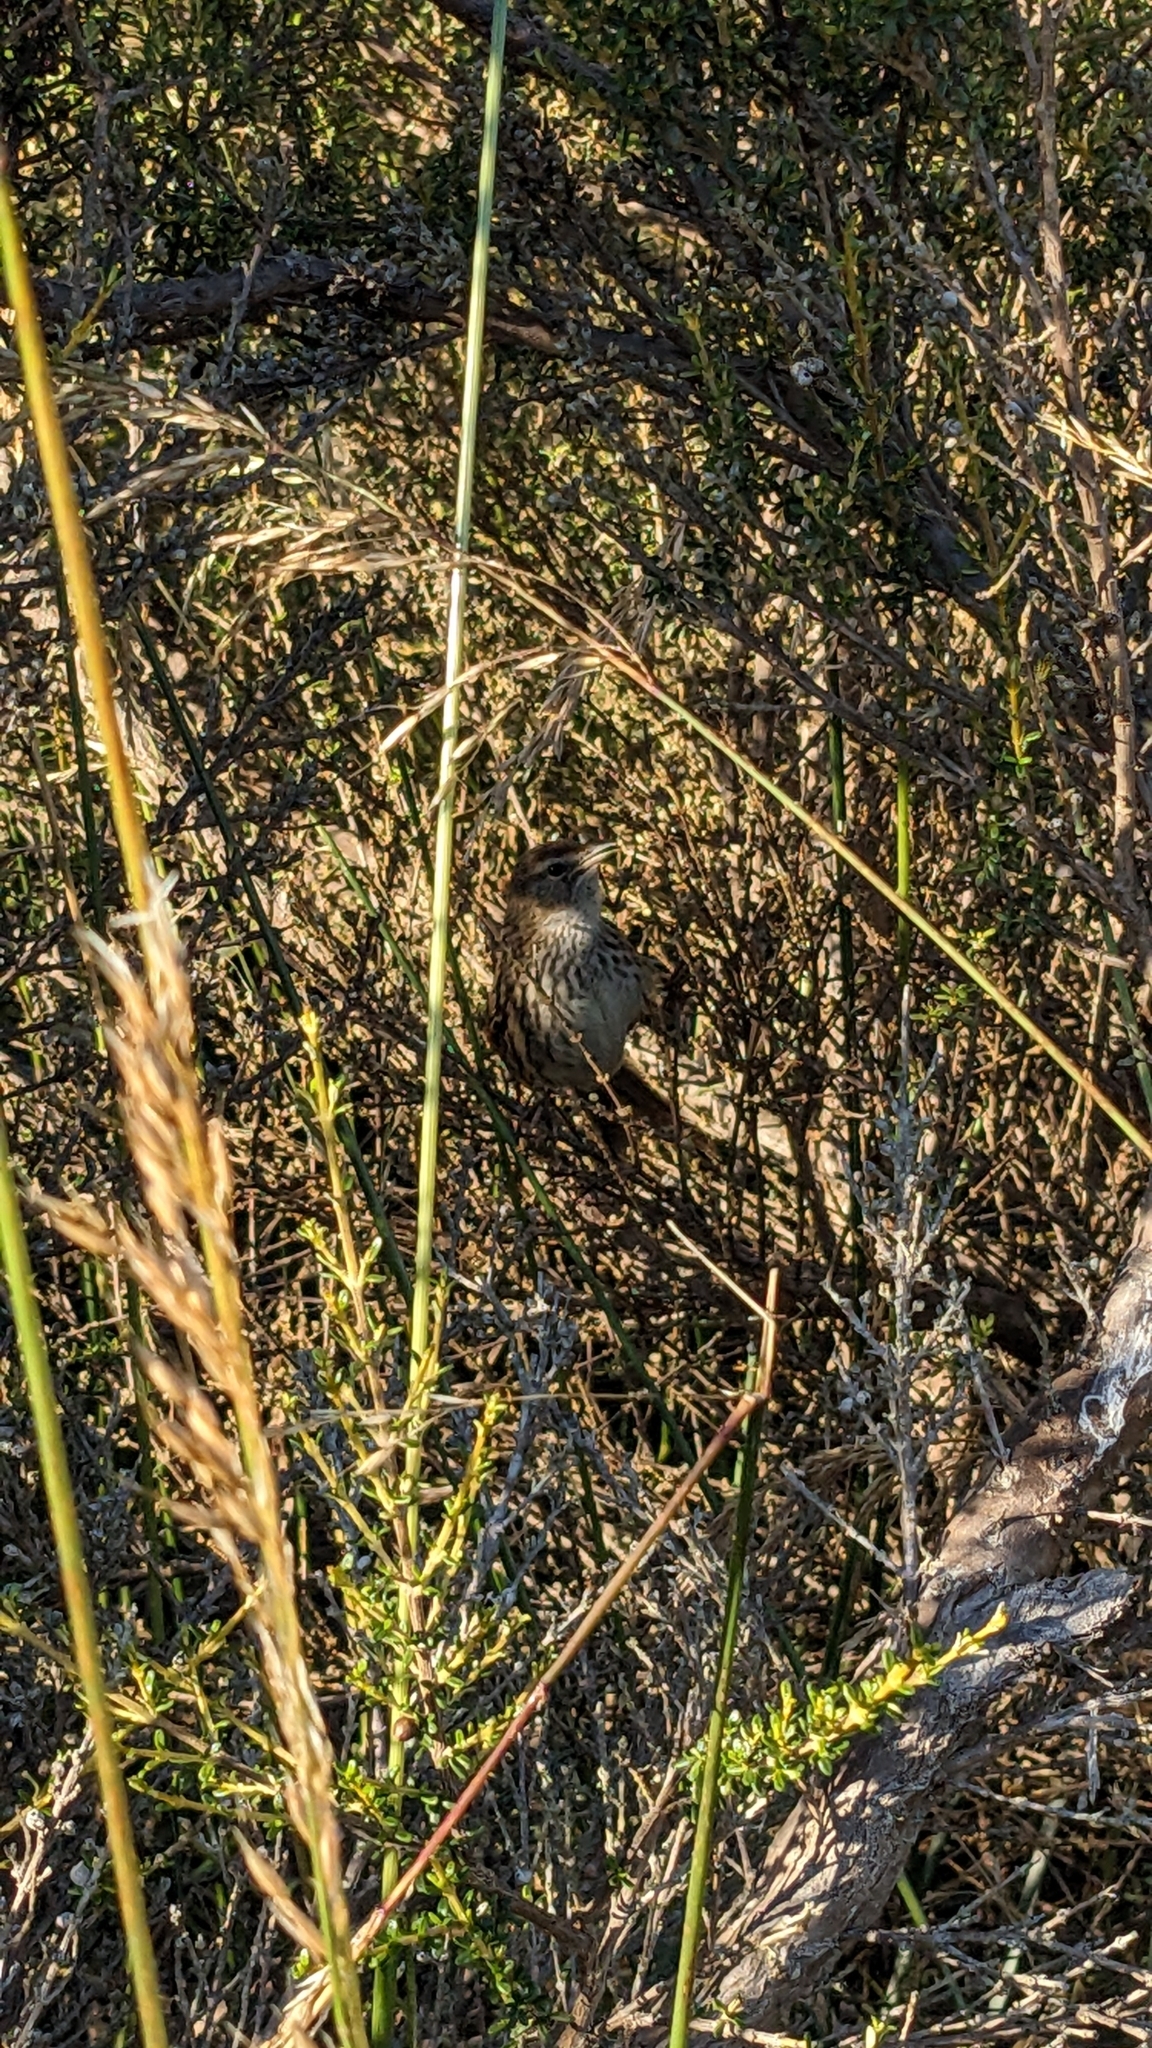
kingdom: Animalia
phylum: Chordata
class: Aves
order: Passeriformes
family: Locustellidae
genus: Megalurus
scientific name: Megalurus punctatus
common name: New zealand fernbird
